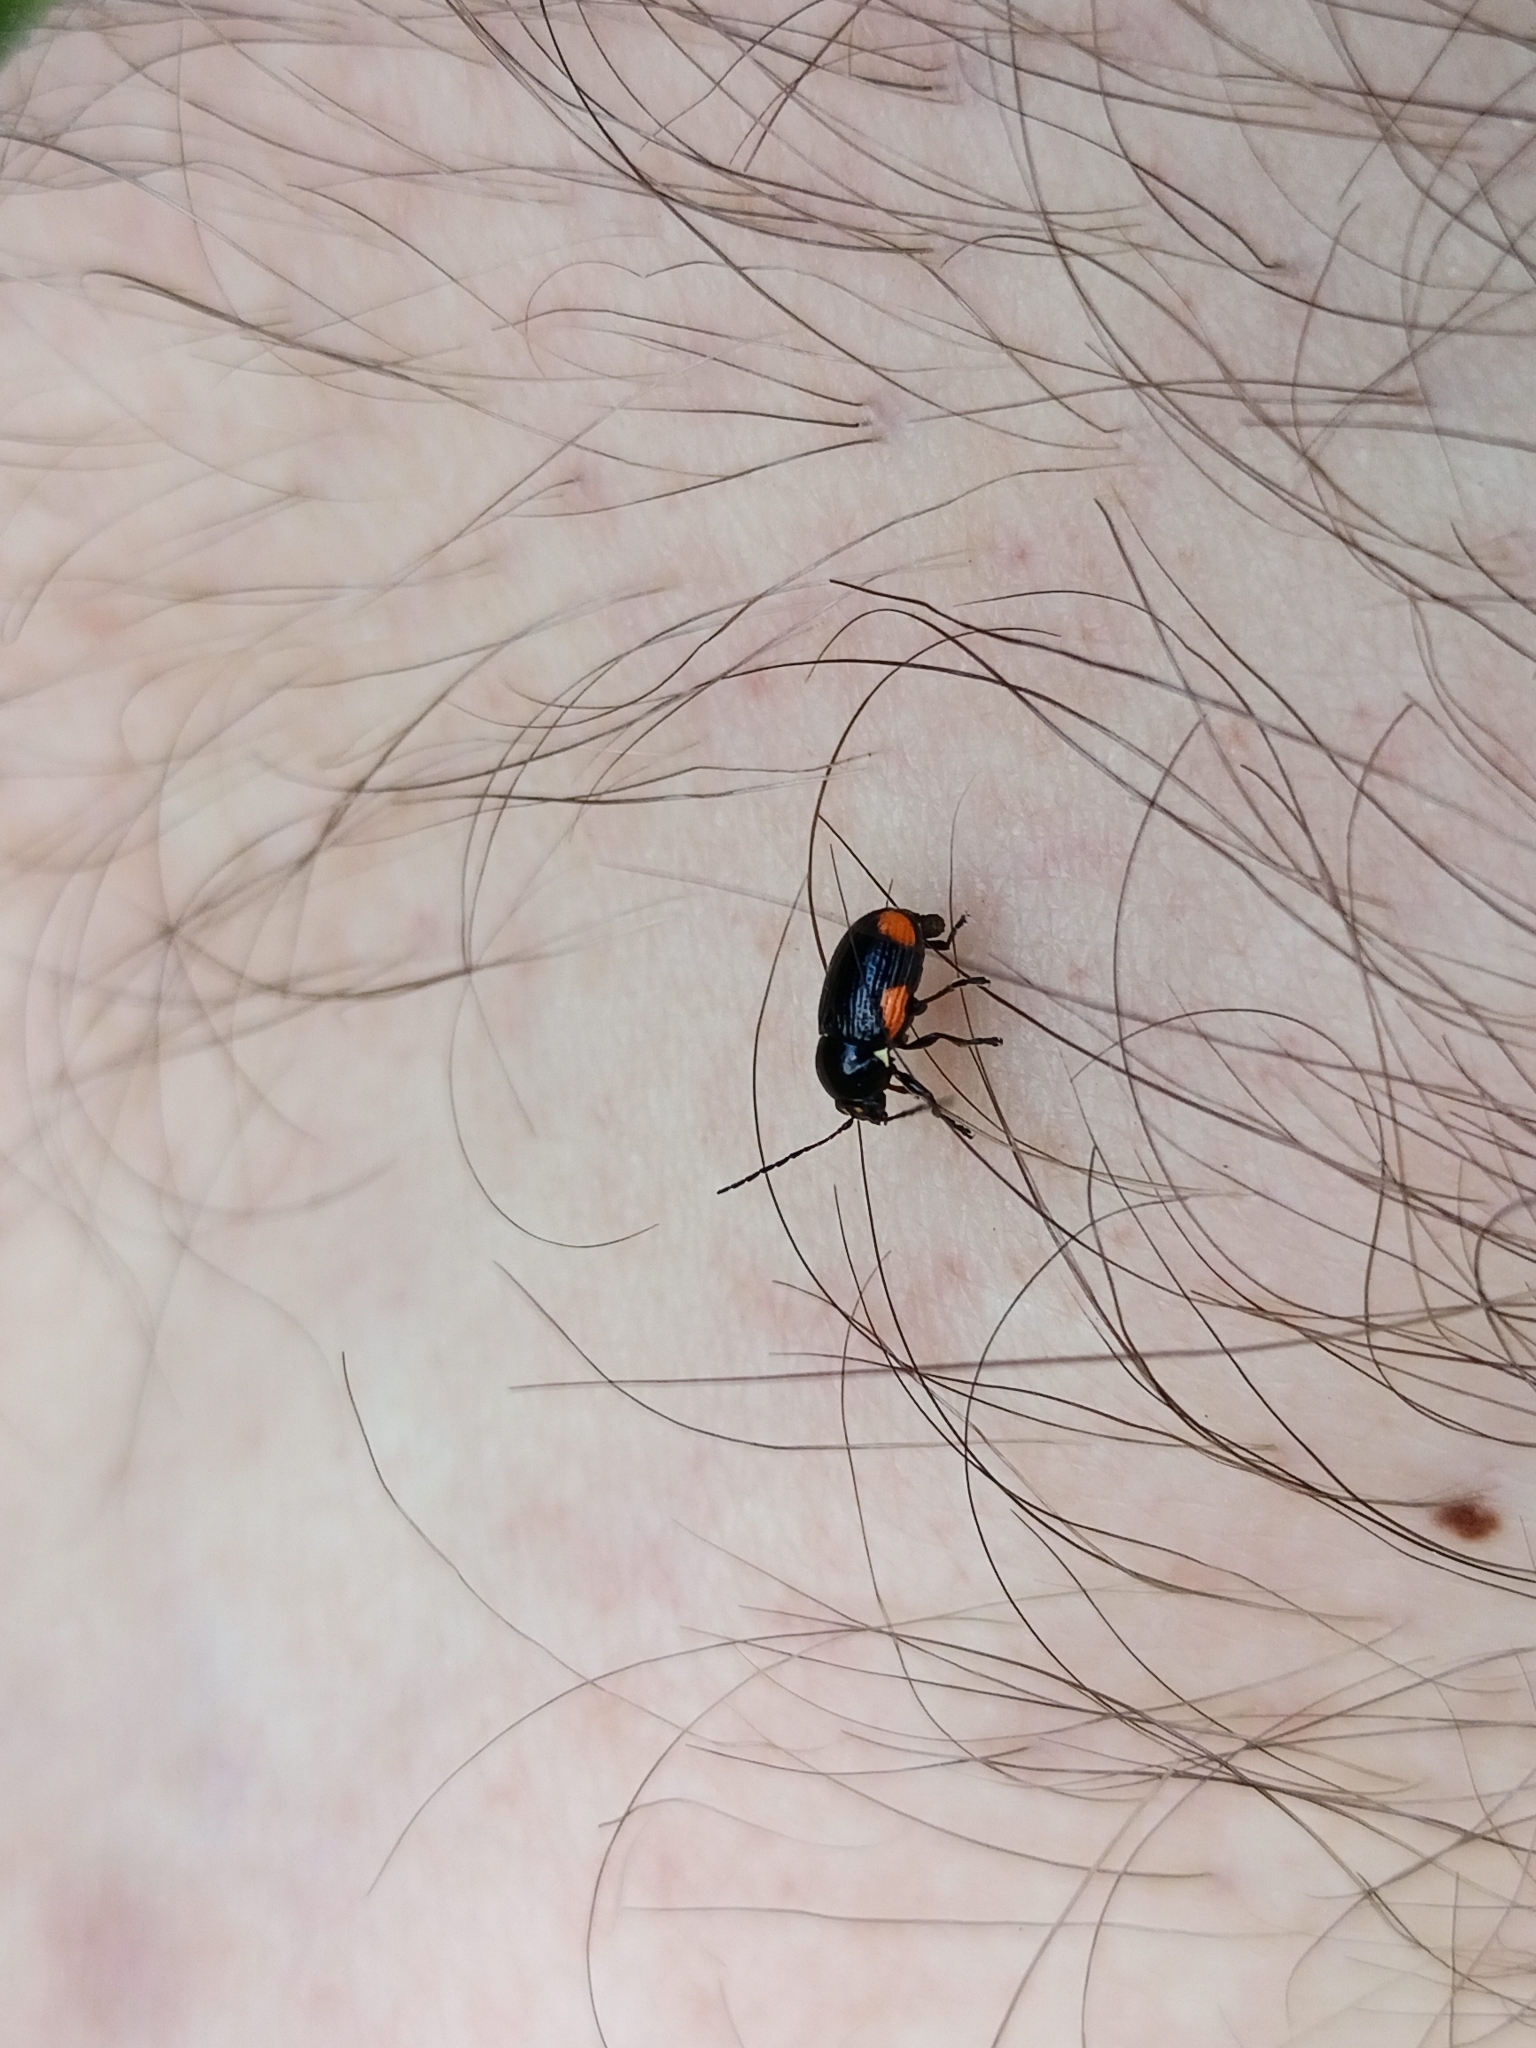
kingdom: Animalia
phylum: Arthropoda
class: Insecta
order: Coleoptera
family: Chrysomelidae
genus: Cryptocephalus
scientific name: Cryptocephalus moraei
